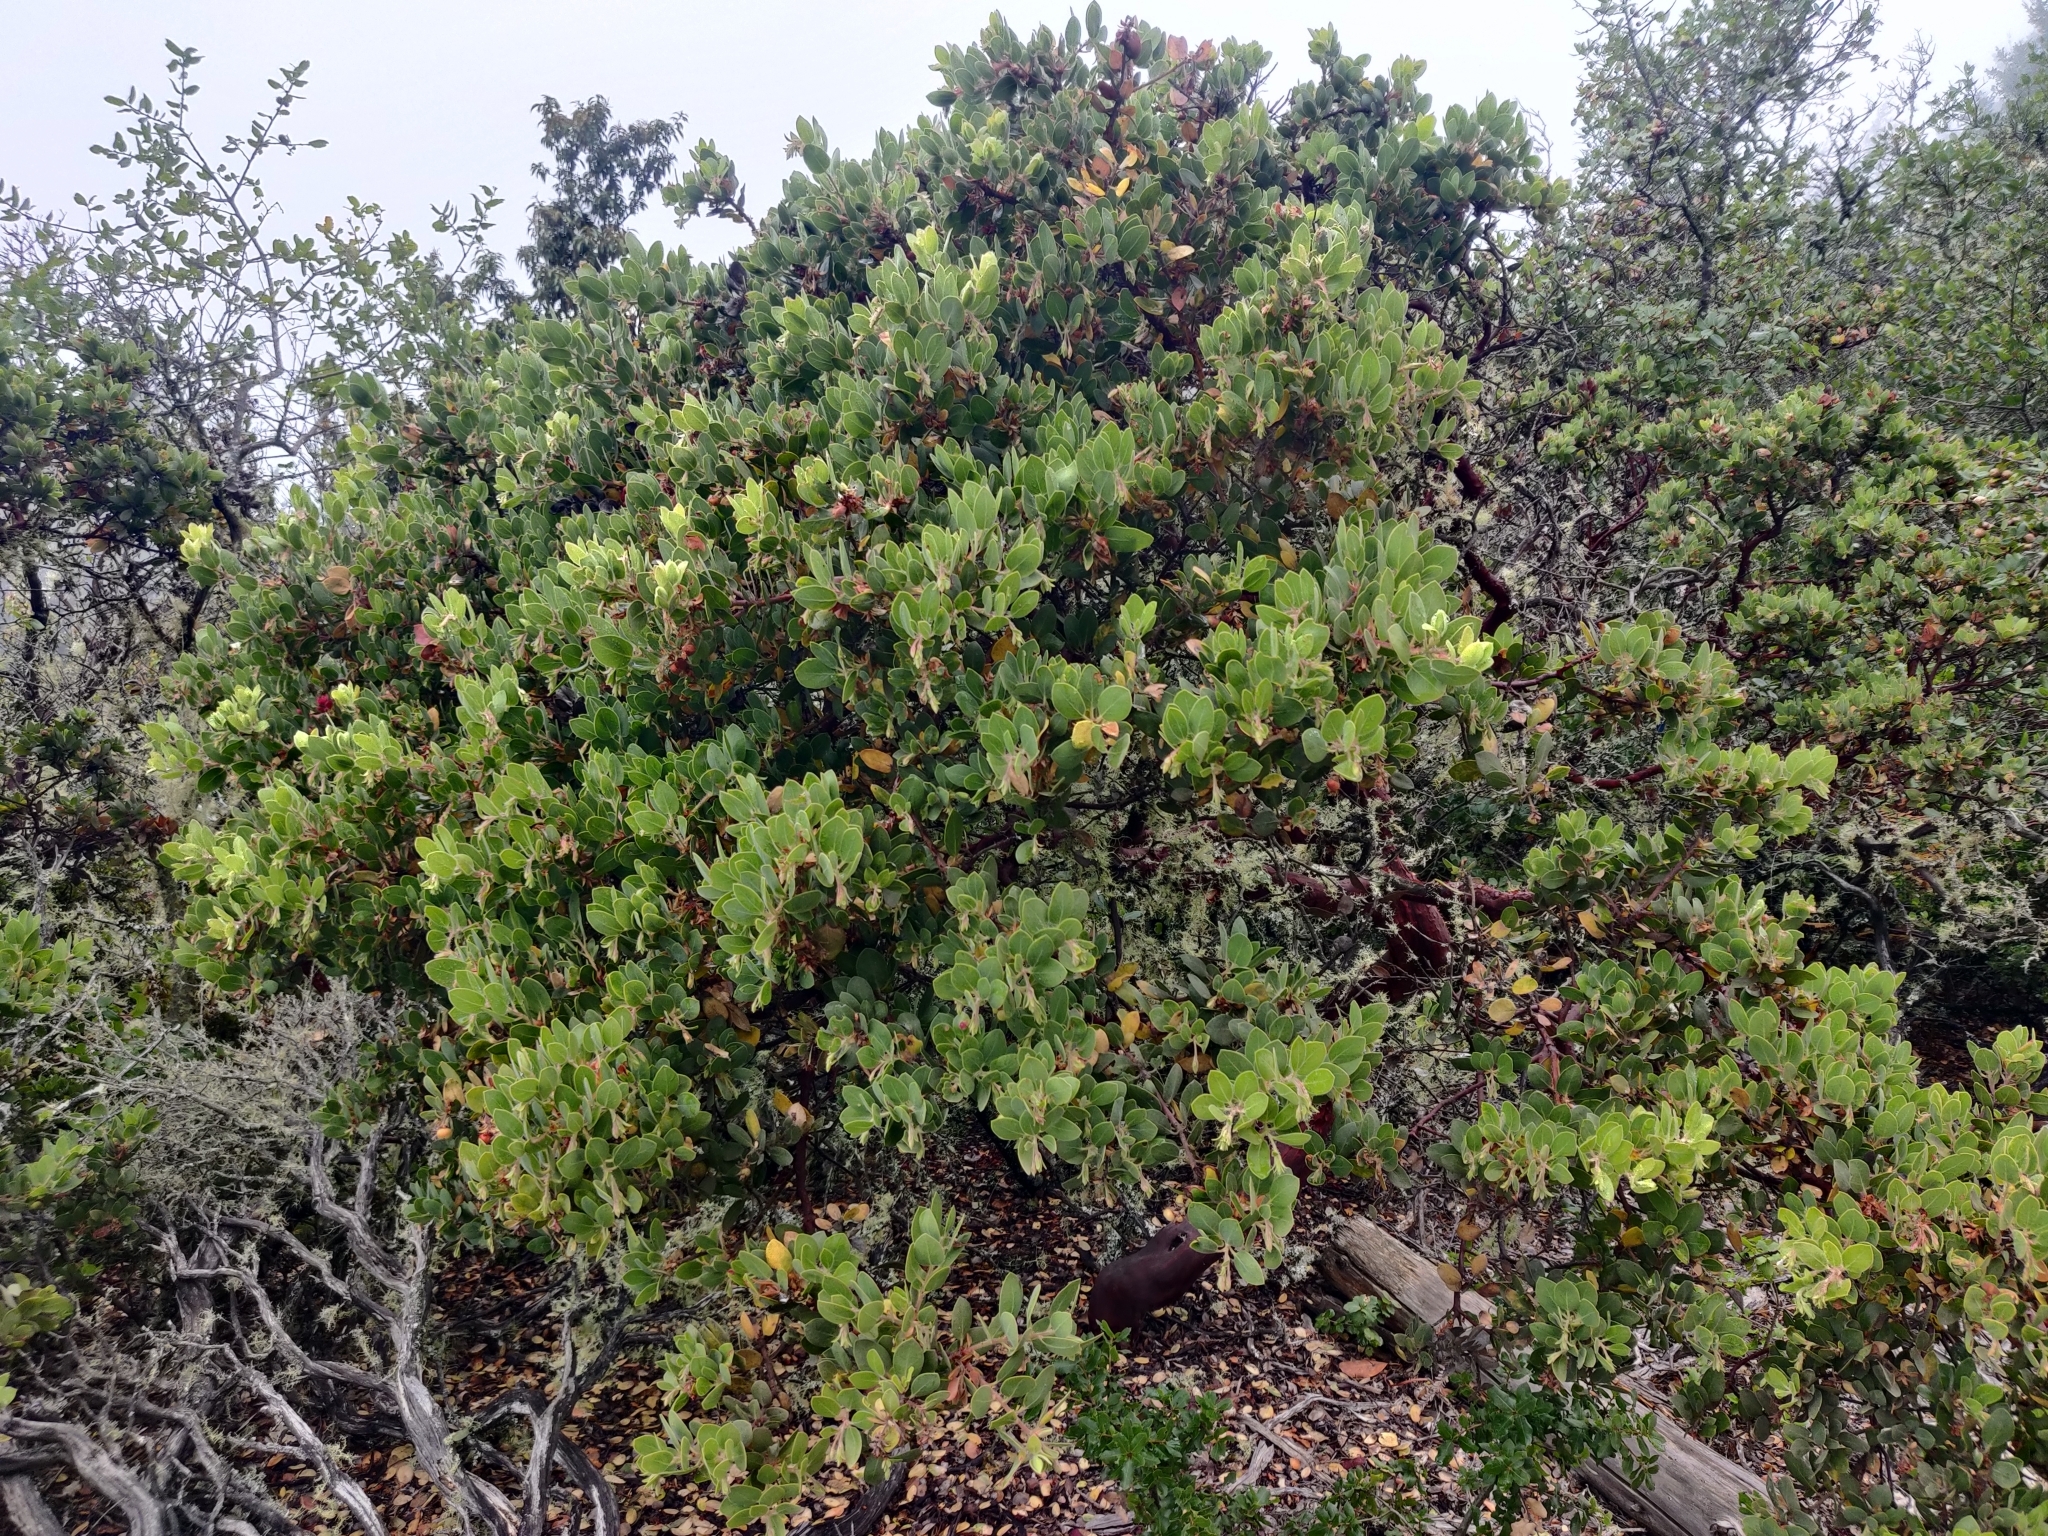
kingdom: Plantae
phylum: Tracheophyta
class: Magnoliopsida
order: Ericales
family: Ericaceae
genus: Arctostaphylos
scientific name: Arctostaphylos virgata
